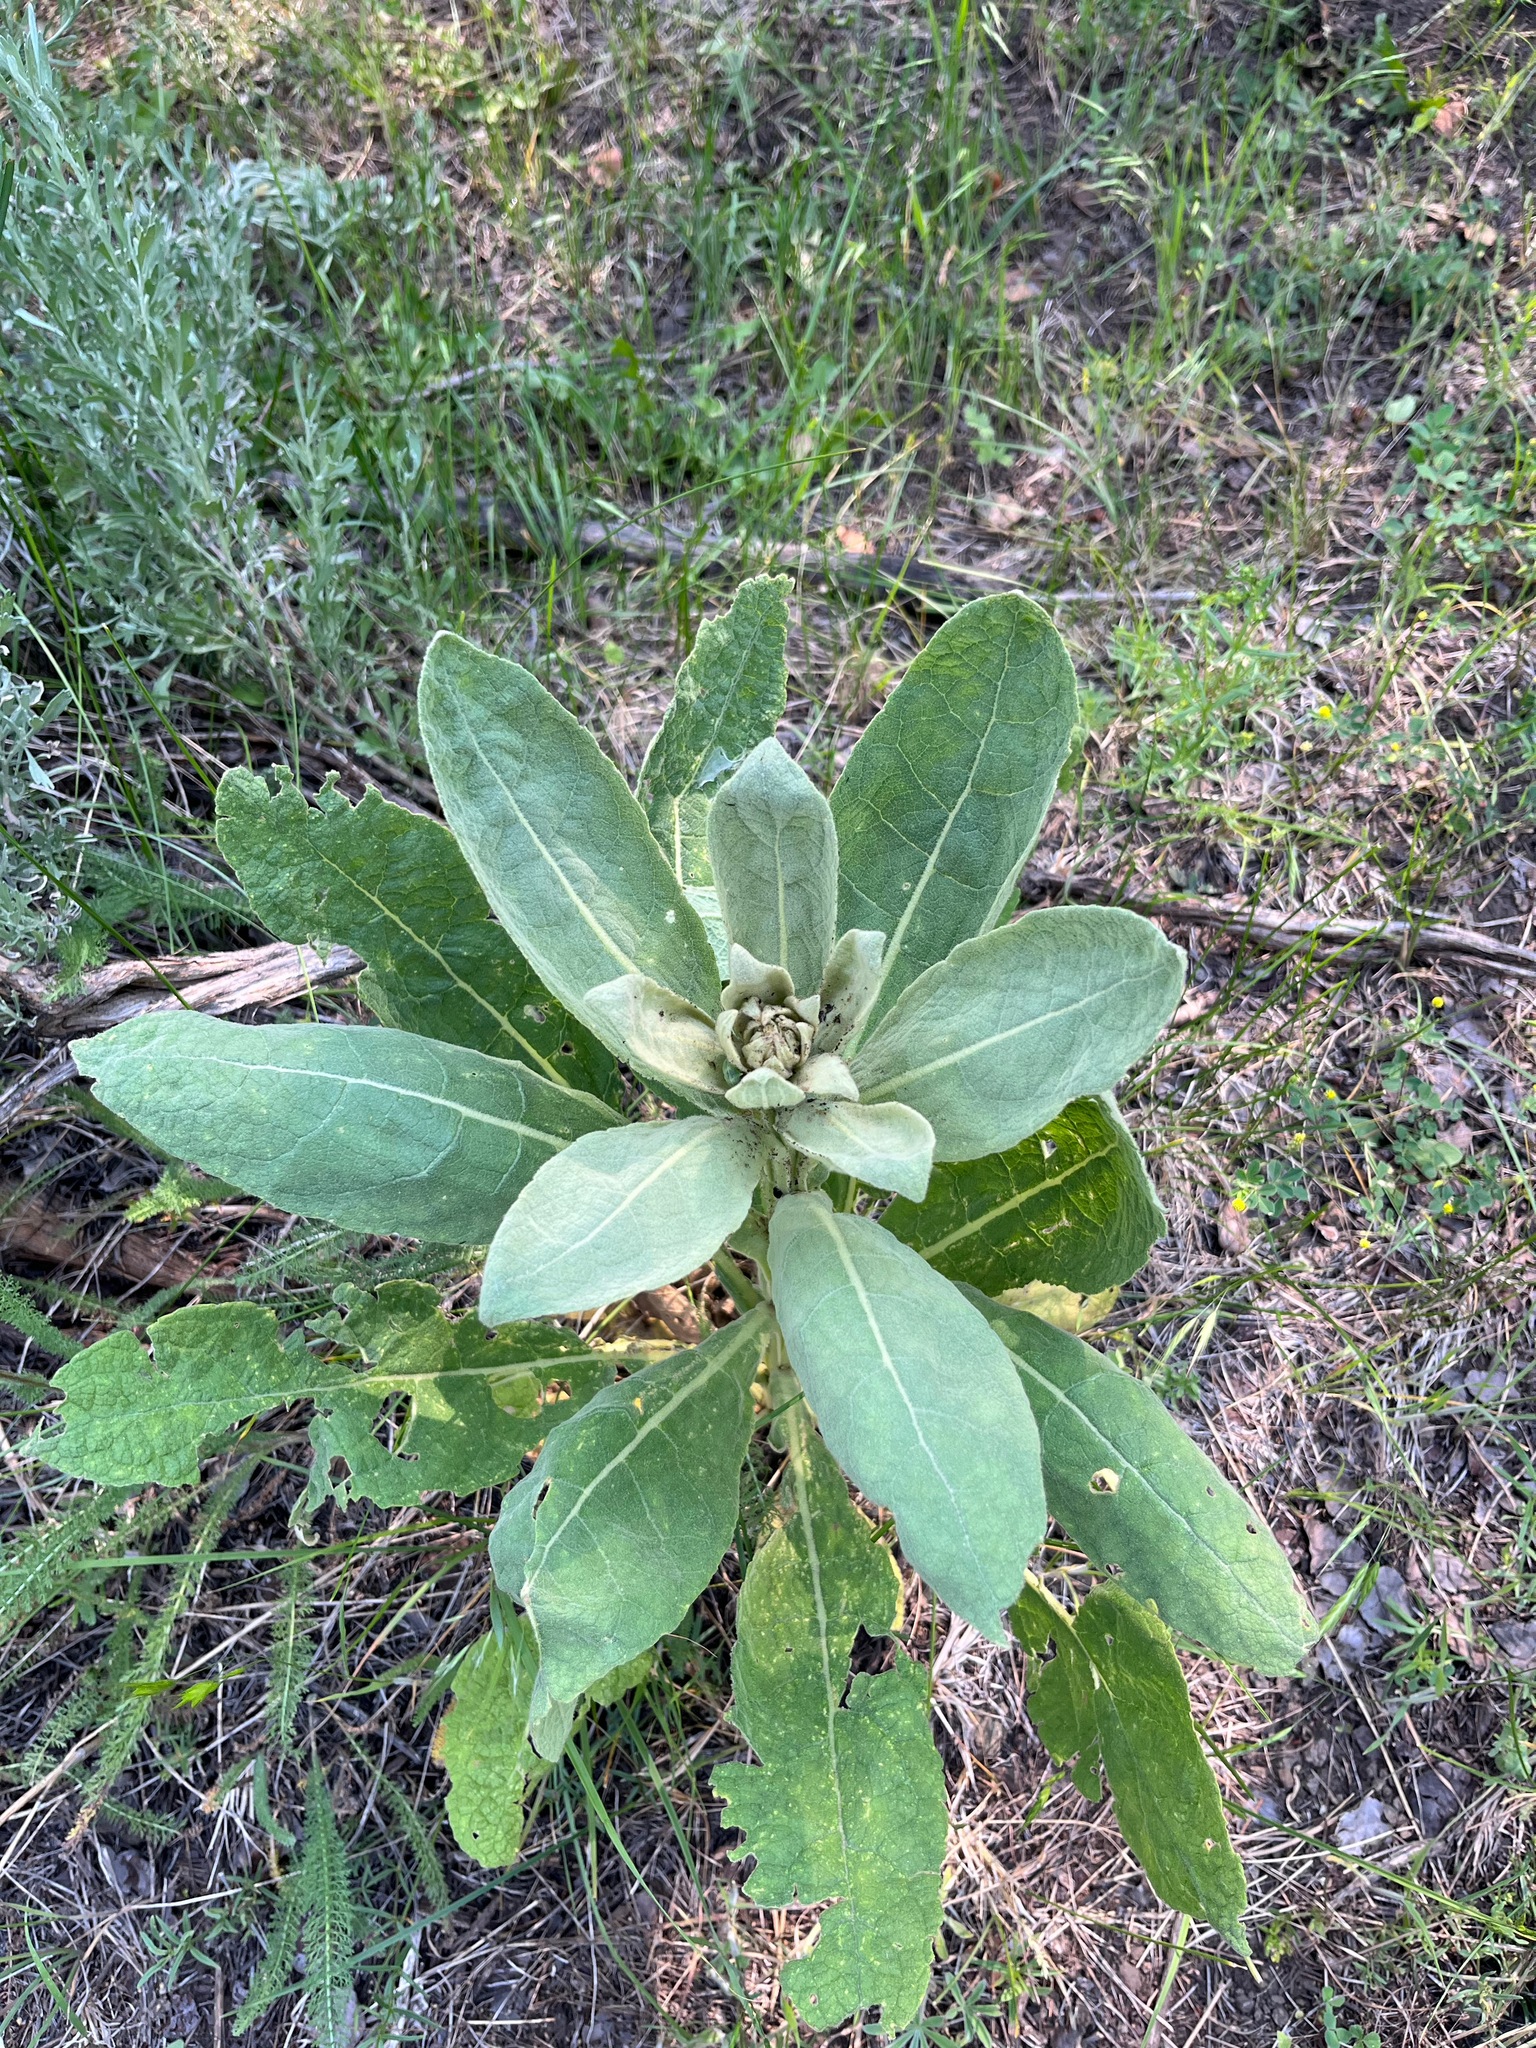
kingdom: Plantae
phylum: Tracheophyta
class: Magnoliopsida
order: Lamiales
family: Scrophulariaceae
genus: Verbascum
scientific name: Verbascum thapsus
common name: Common mullein
